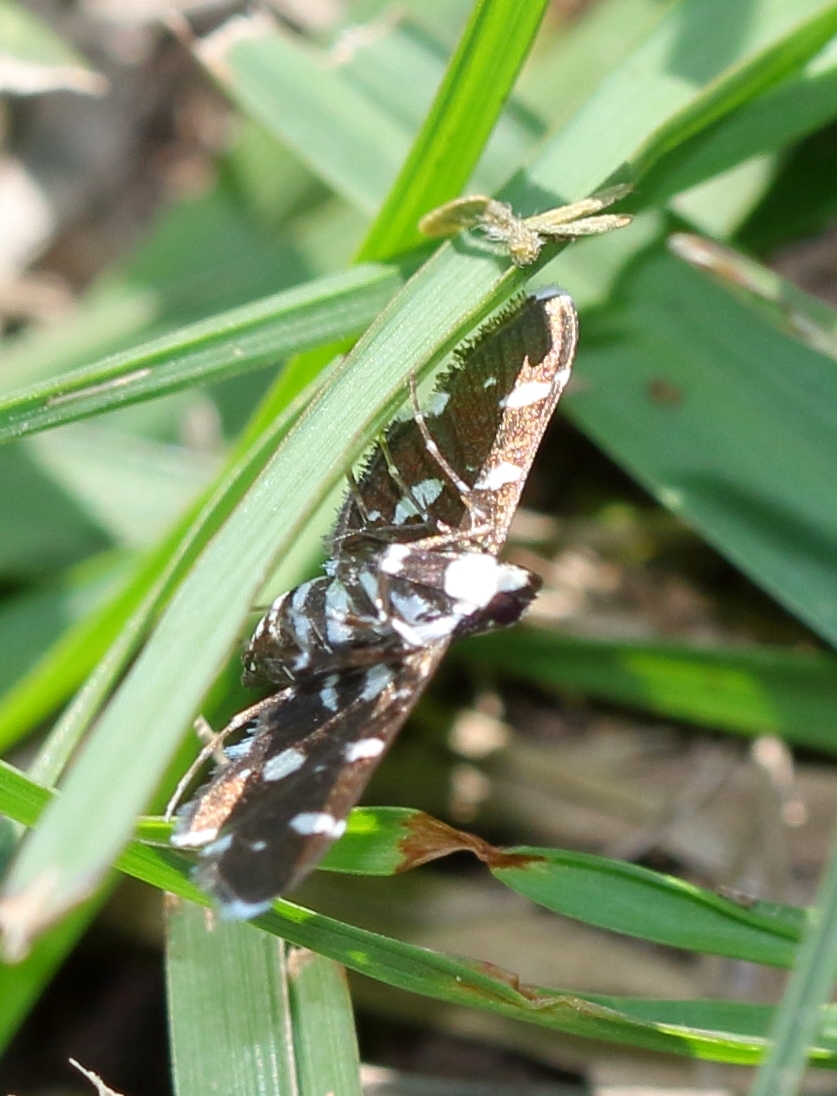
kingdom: Animalia
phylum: Arthropoda
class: Insecta
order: Lepidoptera
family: Crambidae
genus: Bocchoris
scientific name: Bocchoris inspersalis
